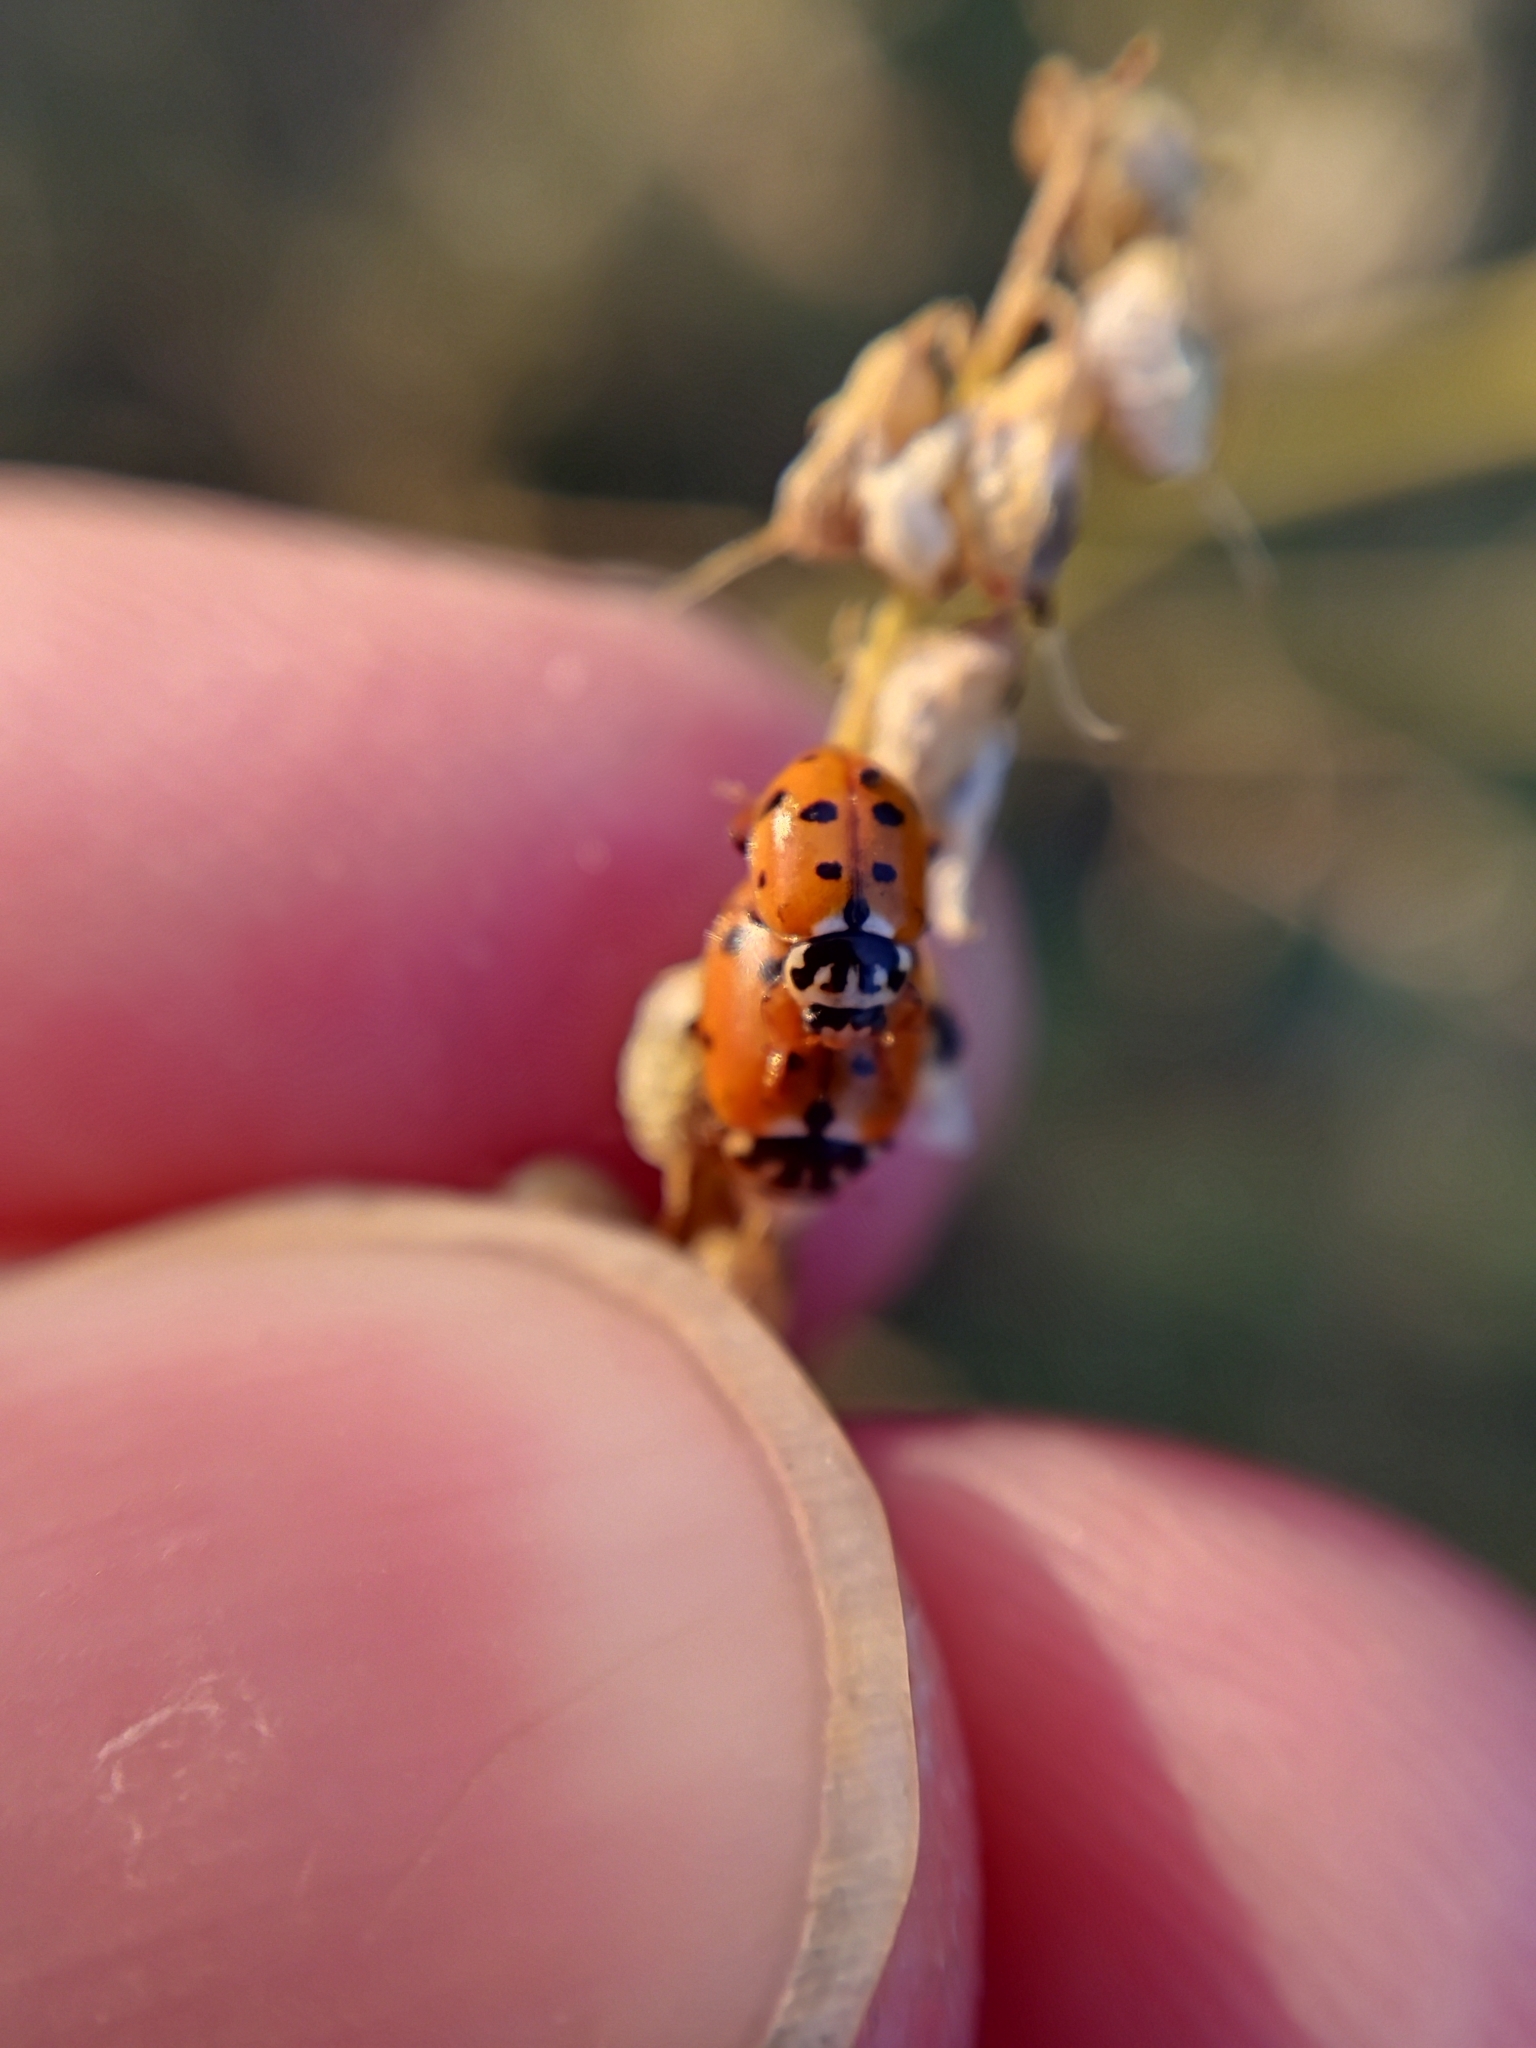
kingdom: Animalia
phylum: Arthropoda
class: Insecta
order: Coleoptera
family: Coccinellidae
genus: Hippodamia
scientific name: Hippodamia variegata
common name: Ladybird beetle
